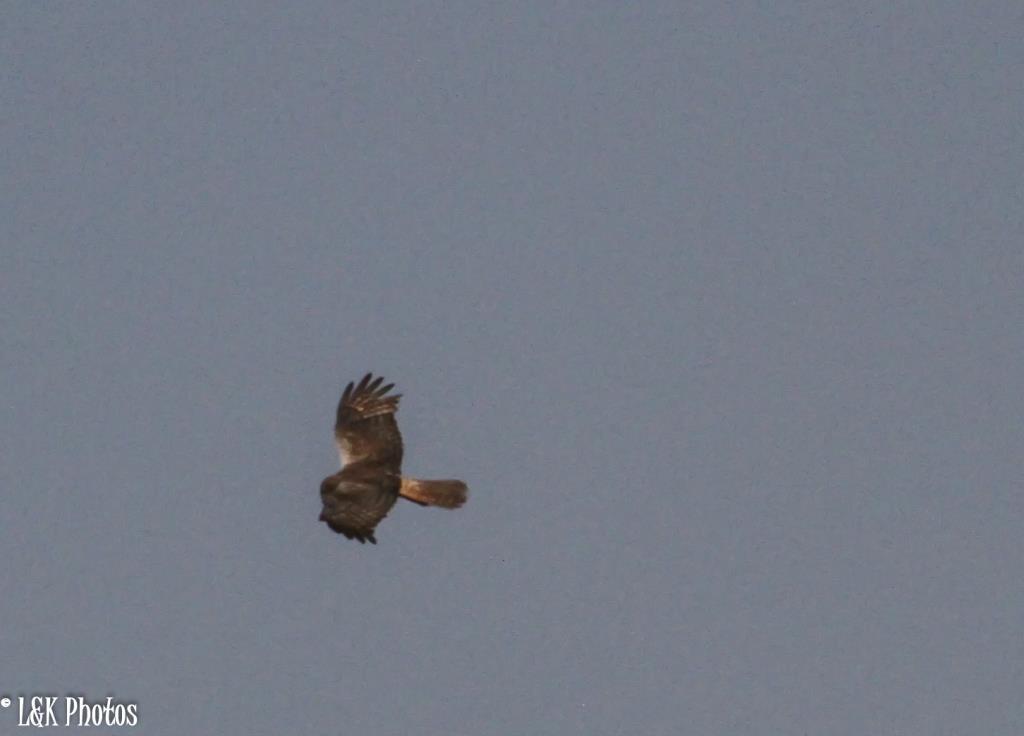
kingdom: Animalia
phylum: Chordata
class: Aves
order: Accipitriformes
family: Accipitridae
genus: Circus
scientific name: Circus ranivorus
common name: African marsh-harrier
